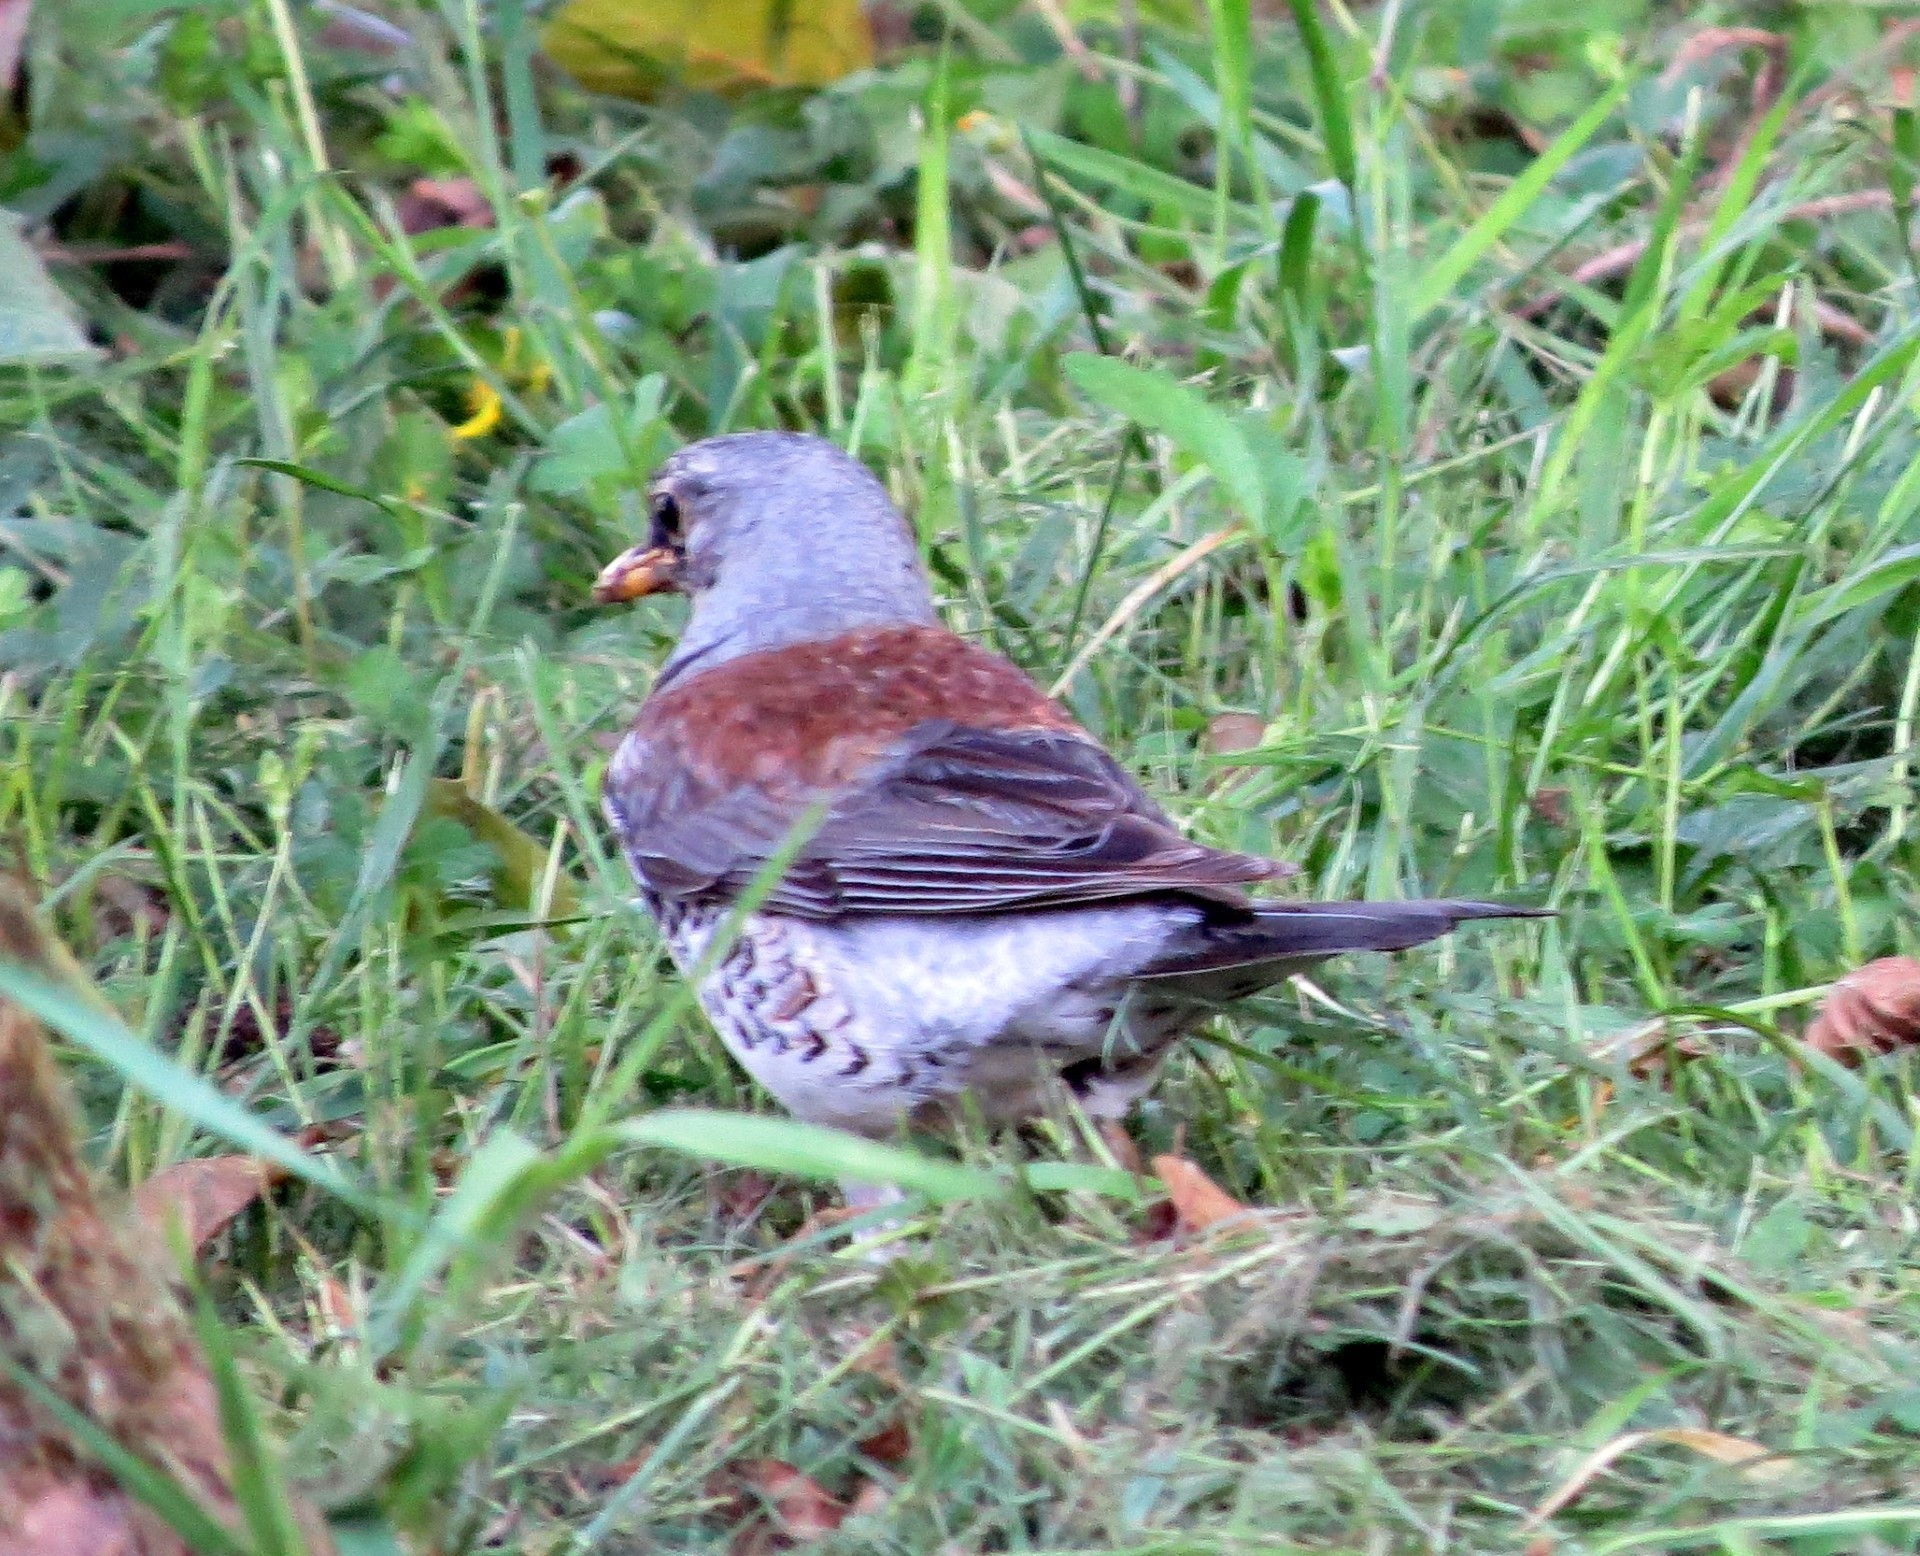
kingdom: Animalia
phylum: Chordata
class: Aves
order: Passeriformes
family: Turdidae
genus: Turdus
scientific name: Turdus pilaris
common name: Fieldfare
